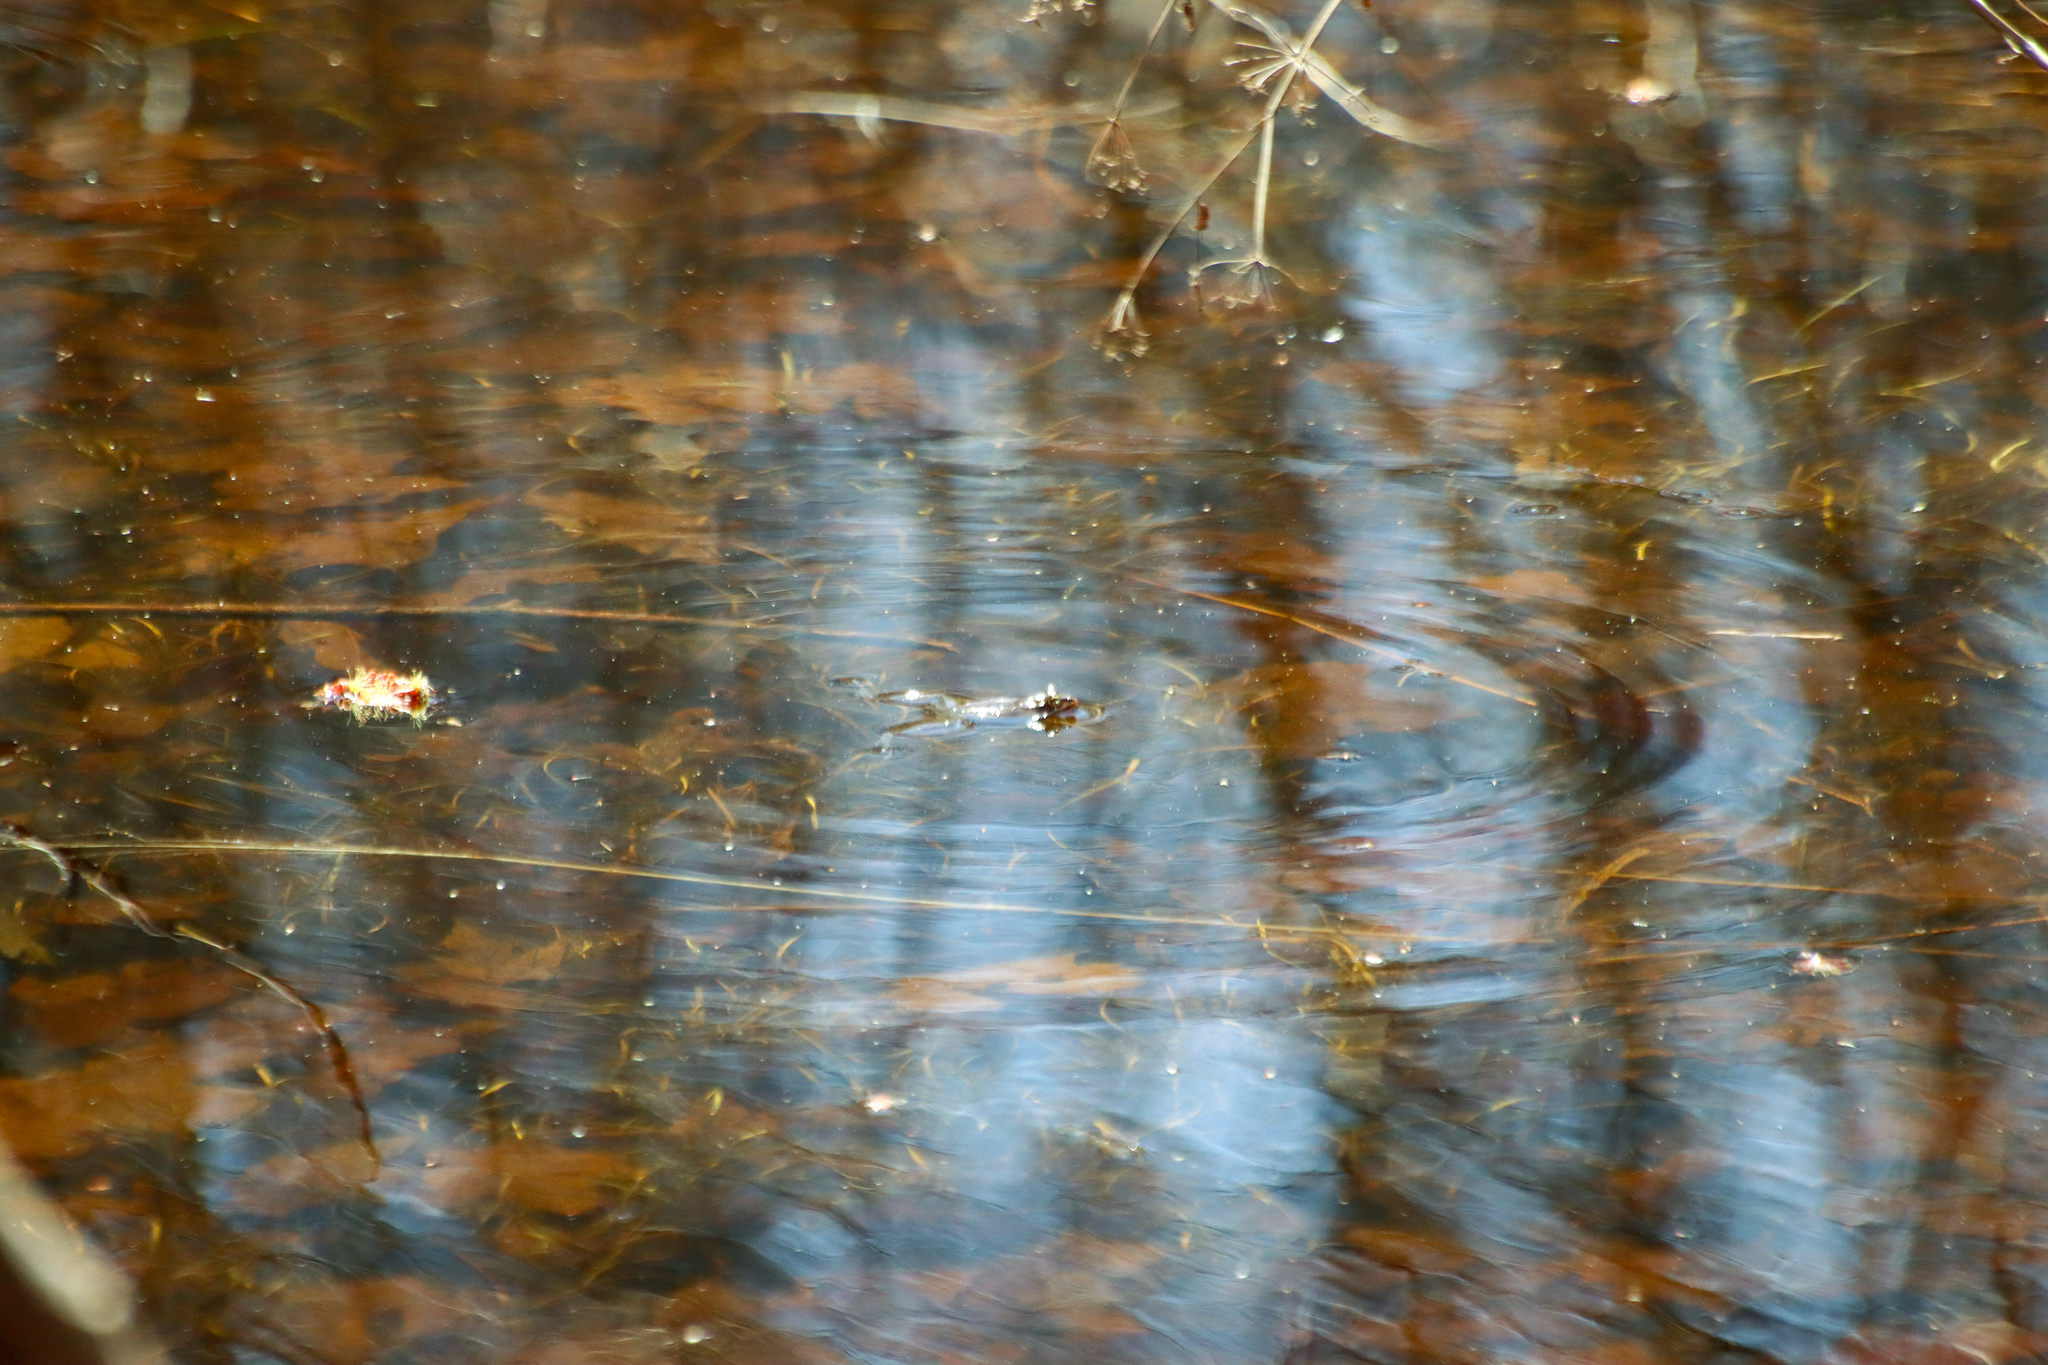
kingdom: Animalia
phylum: Chordata
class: Amphibia
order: Anura
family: Ranidae
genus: Lithobates
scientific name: Lithobates sylvaticus
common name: Wood frog
